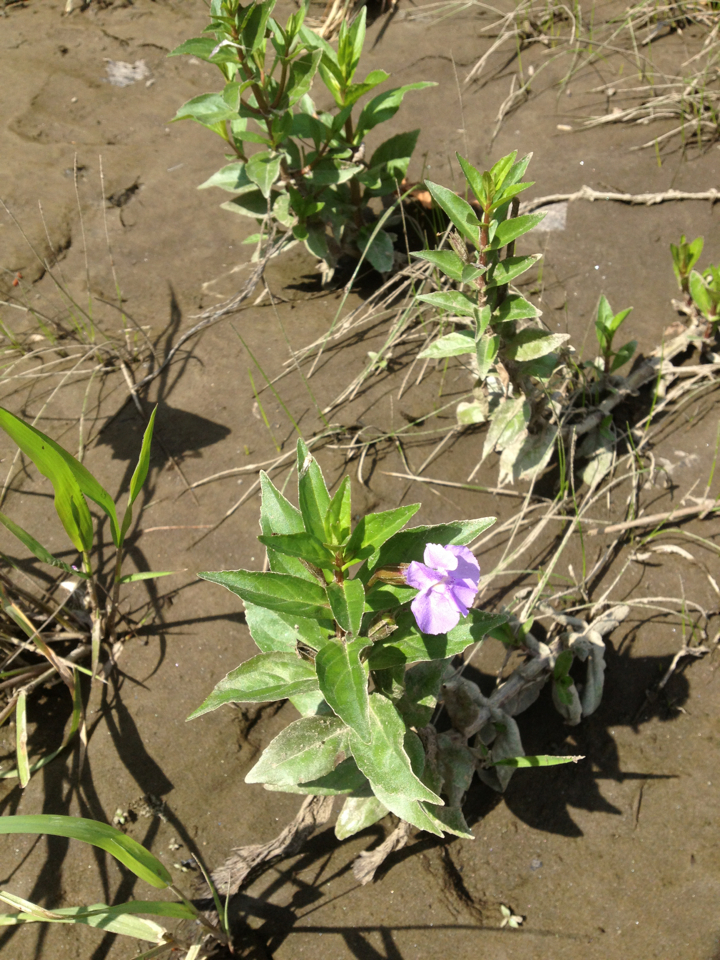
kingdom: Plantae
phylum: Tracheophyta
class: Magnoliopsida
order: Lamiales
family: Phrymaceae
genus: Mimulus
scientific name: Mimulus ringens
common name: Allegheny monkeyflower
